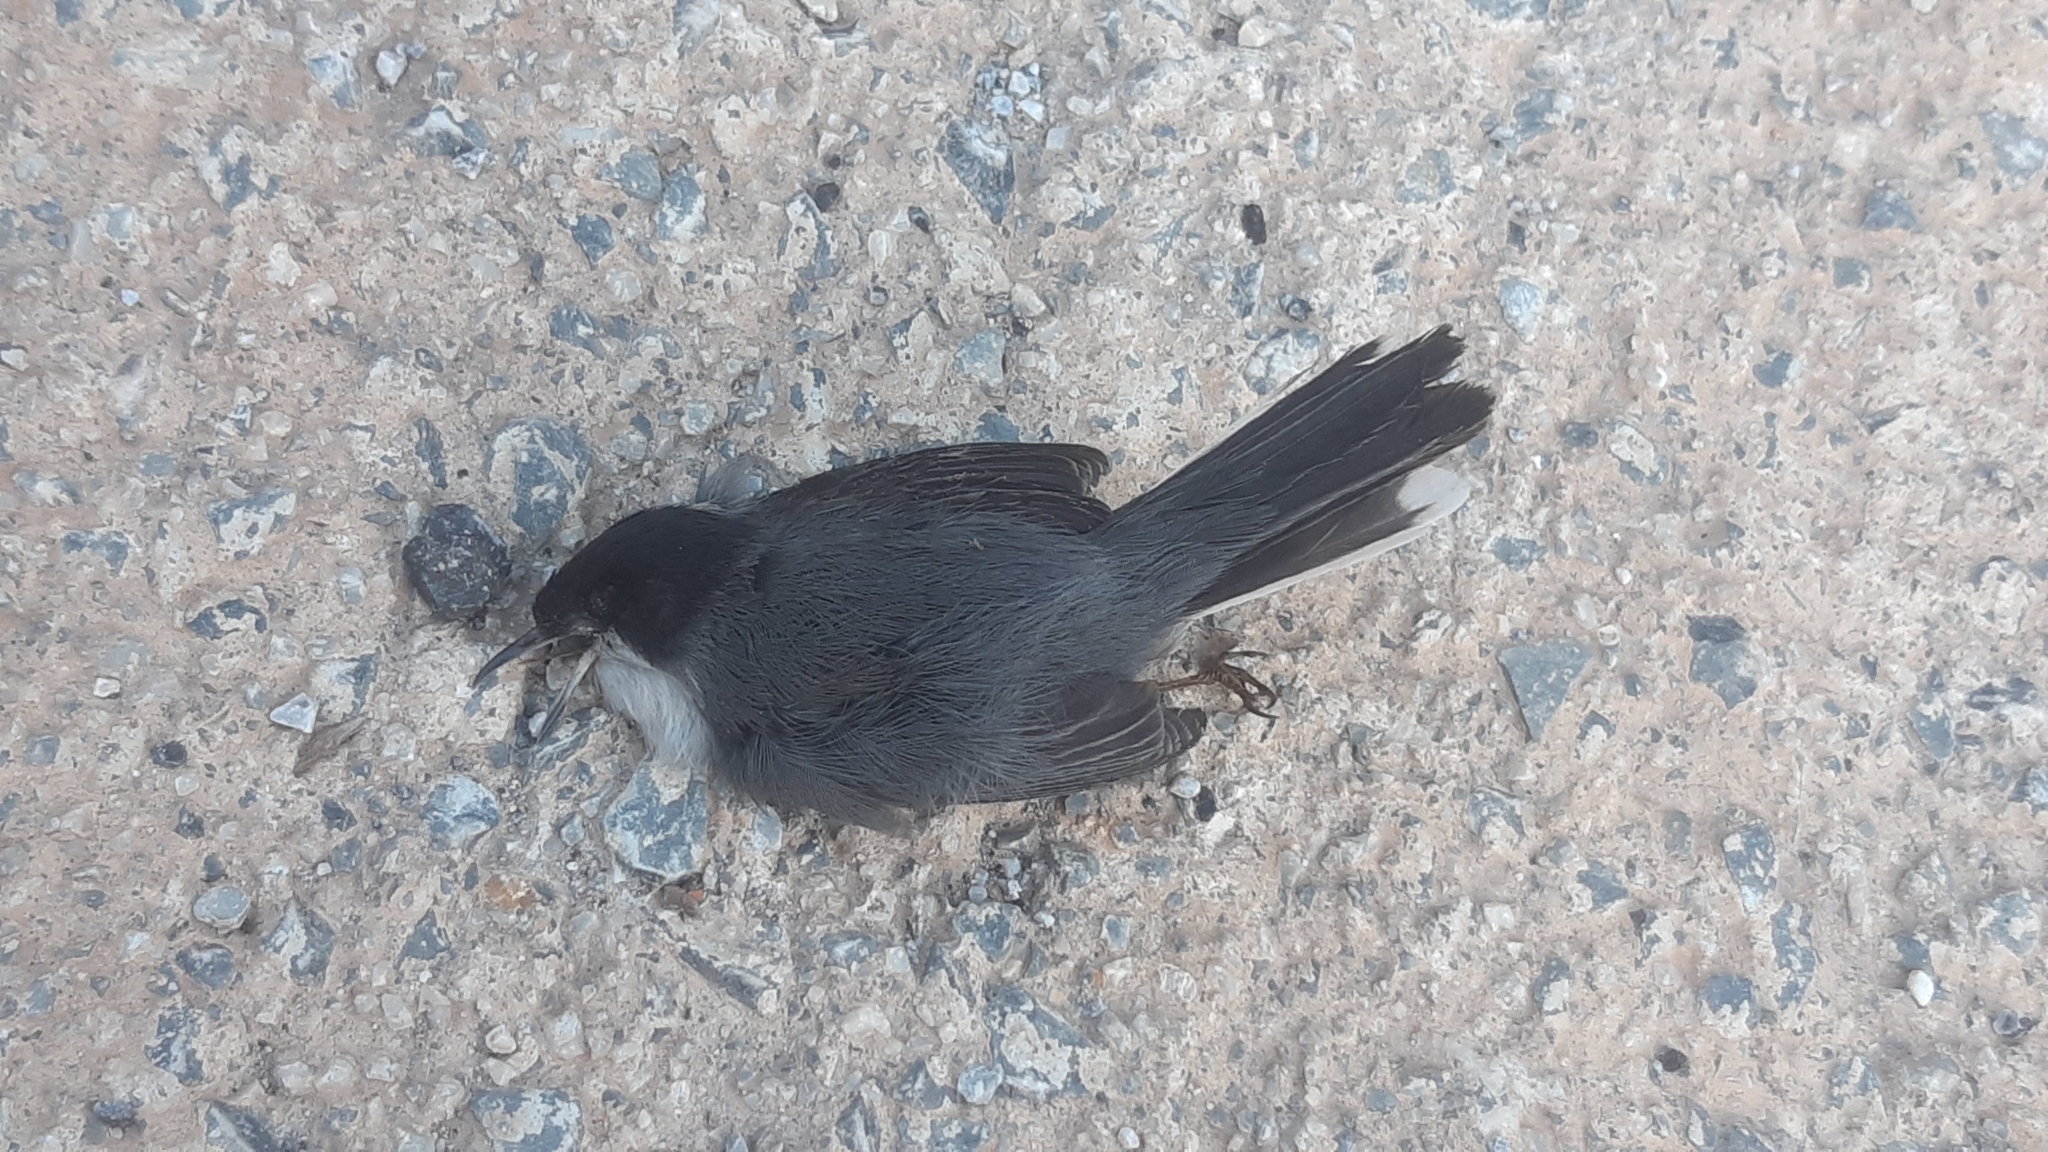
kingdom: Animalia
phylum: Chordata
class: Aves
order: Passeriformes
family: Sylviidae
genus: Curruca
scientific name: Curruca melanocephala
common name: Sardinian warbler
